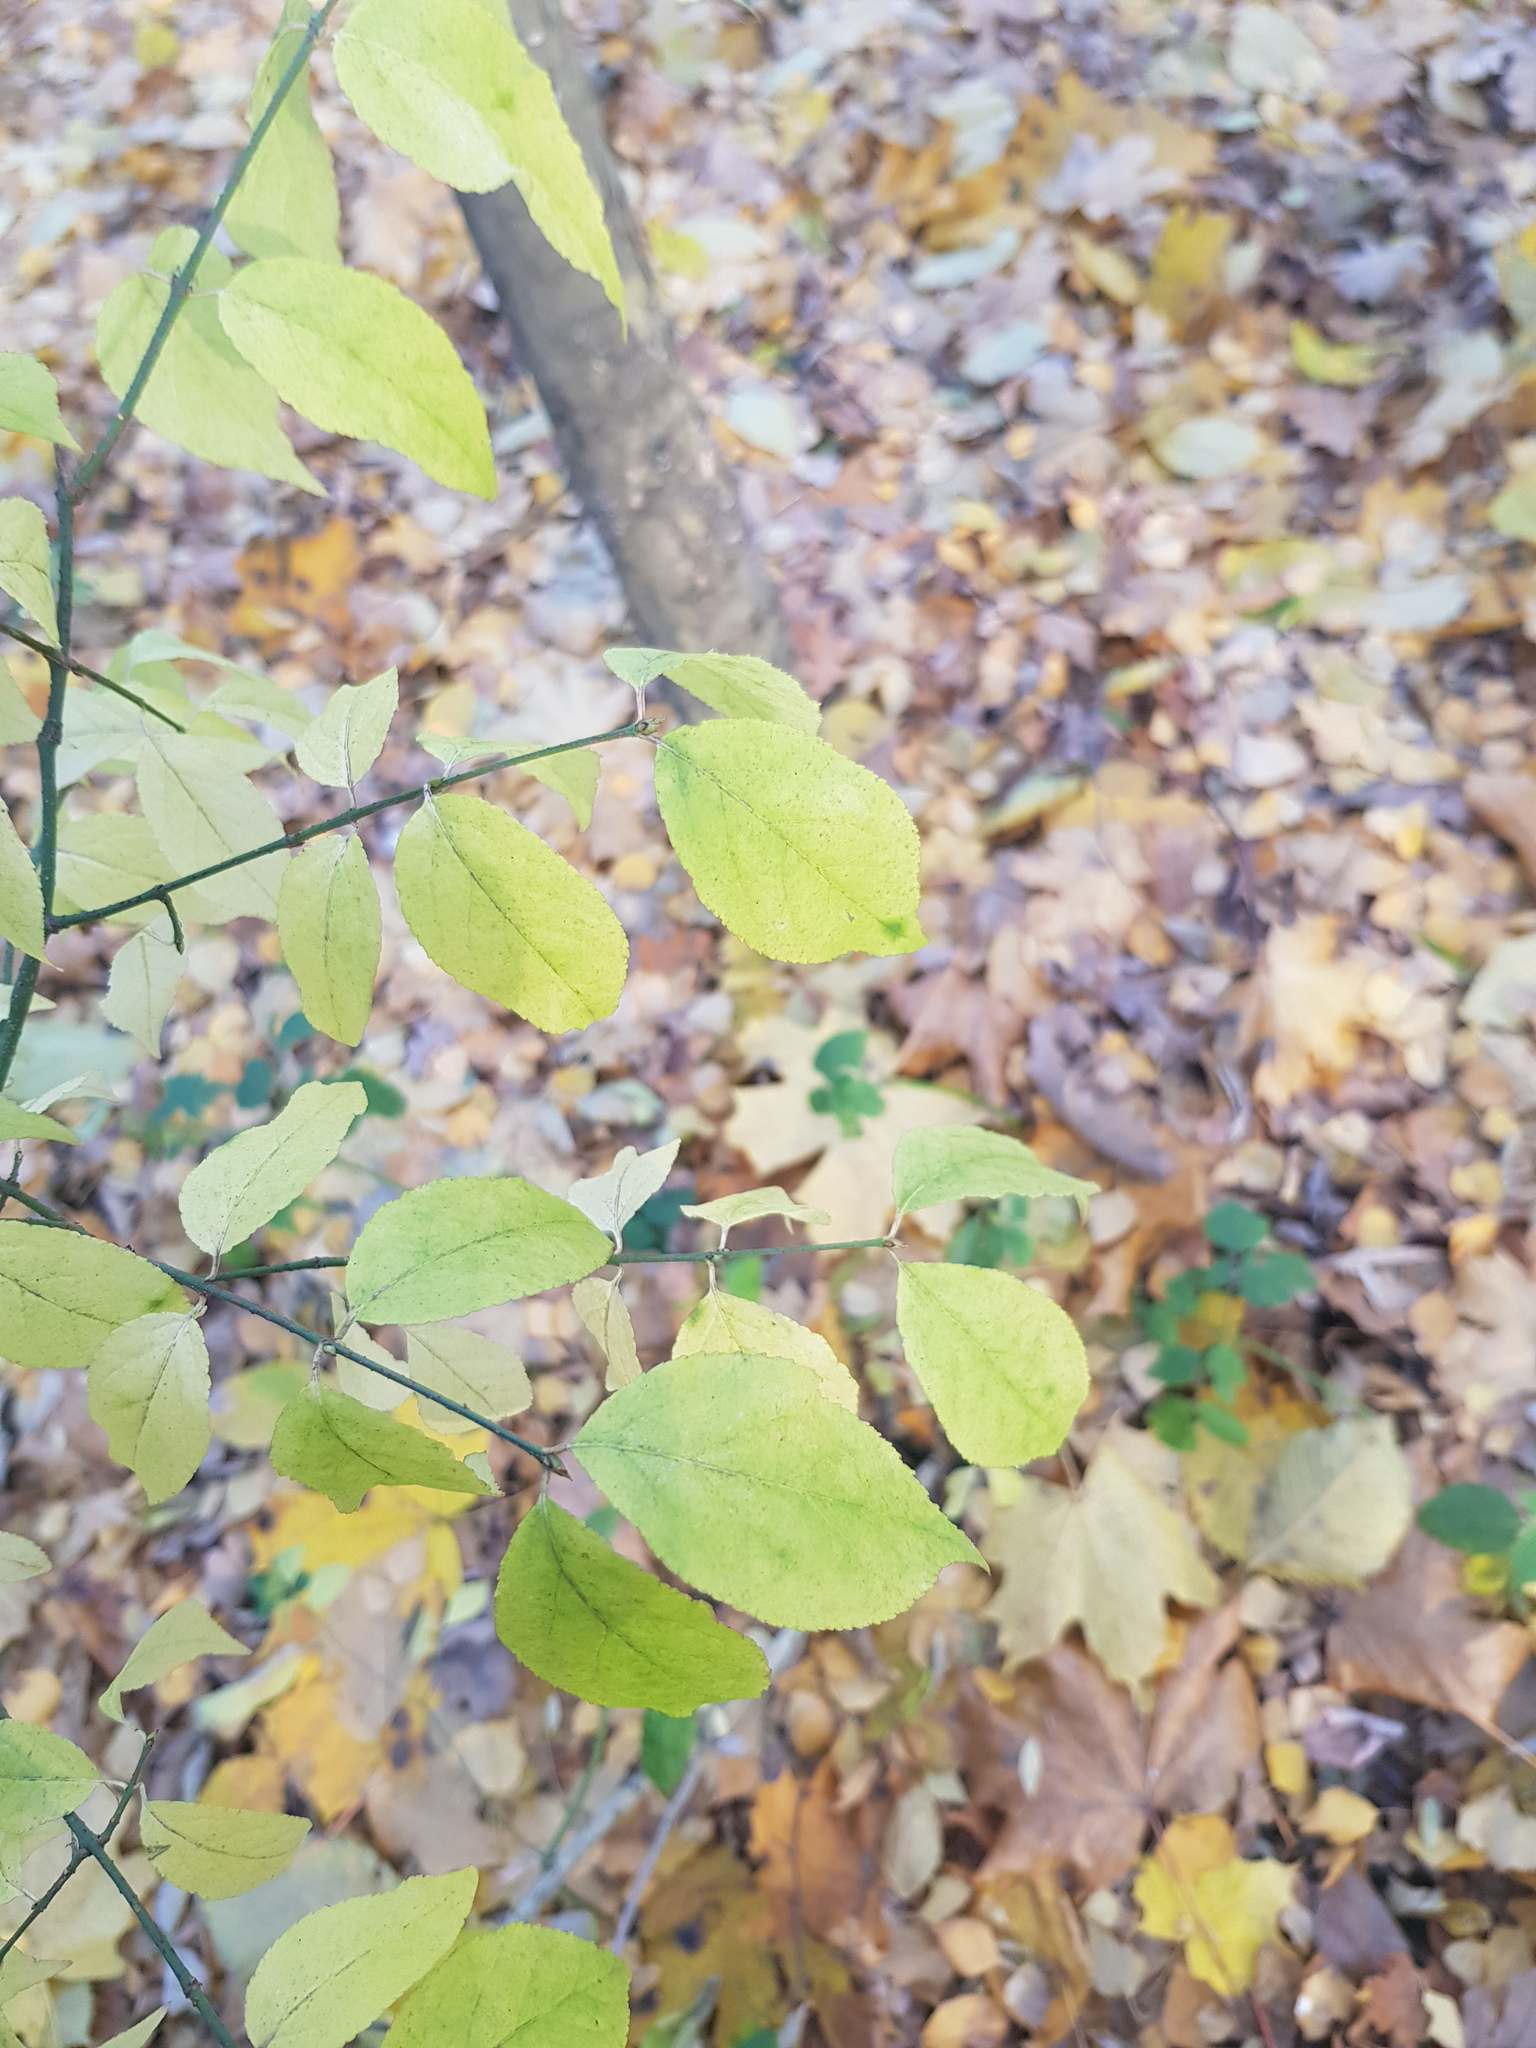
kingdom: Plantae
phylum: Tracheophyta
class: Magnoliopsida
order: Celastrales
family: Celastraceae
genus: Euonymus
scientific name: Euonymus verrucosus
